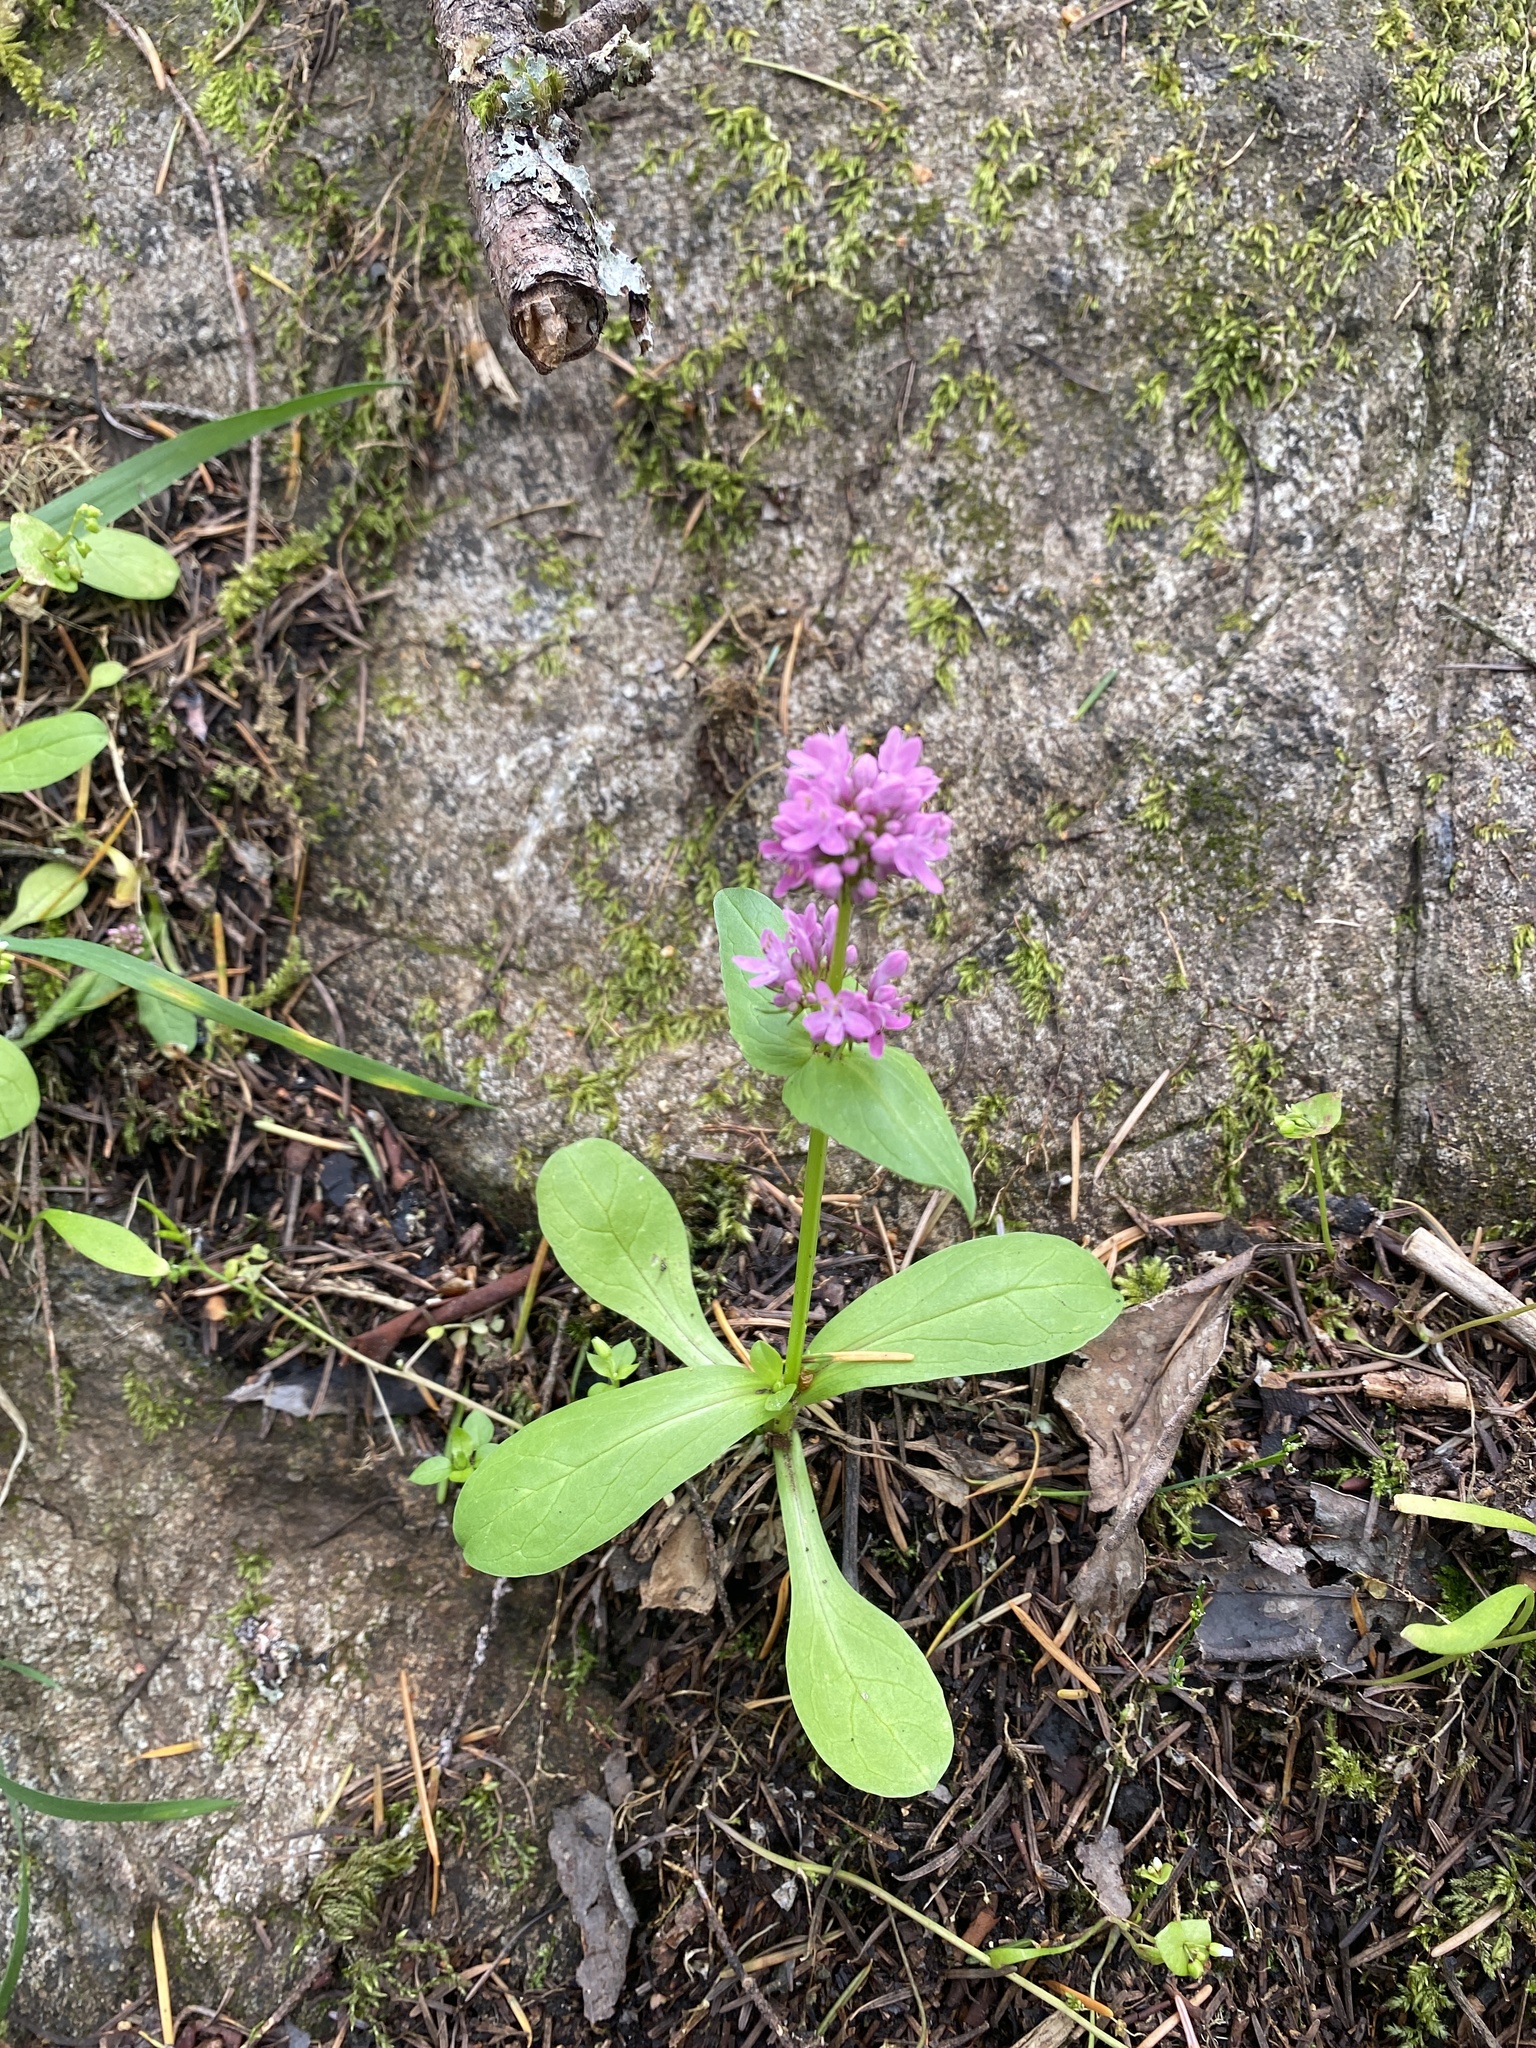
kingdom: Plantae
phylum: Tracheophyta
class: Magnoliopsida
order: Dipsacales
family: Caprifoliaceae
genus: Plectritis
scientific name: Plectritis congesta
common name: Pink plectritis
